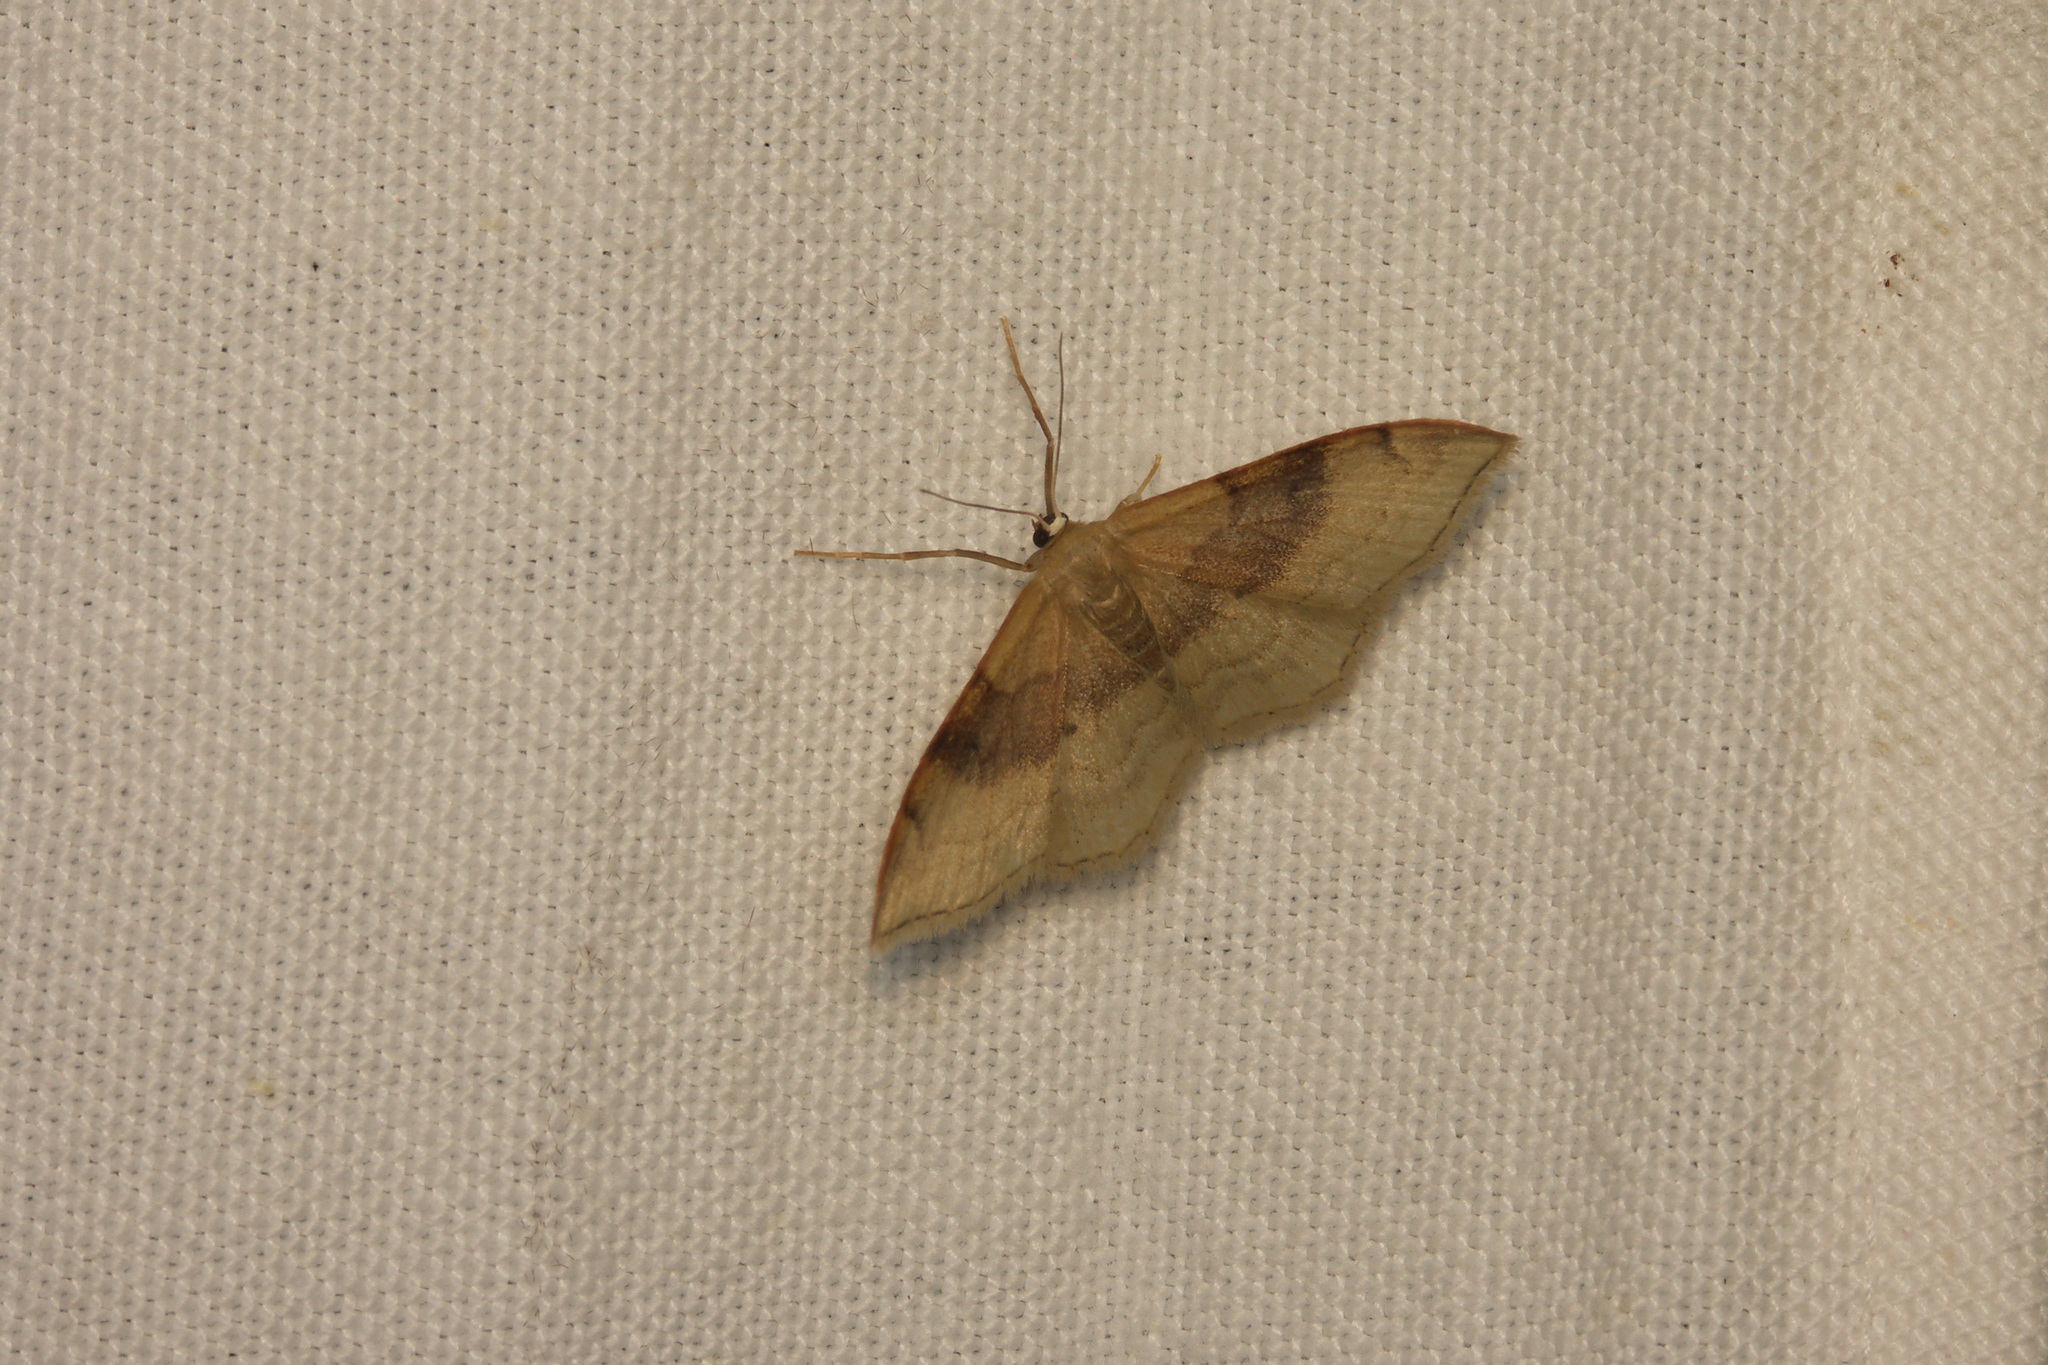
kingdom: Animalia
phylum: Arthropoda
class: Insecta
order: Lepidoptera
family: Geometridae
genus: Idaea
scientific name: Idaea degeneraria
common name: Portland ribbon wave
